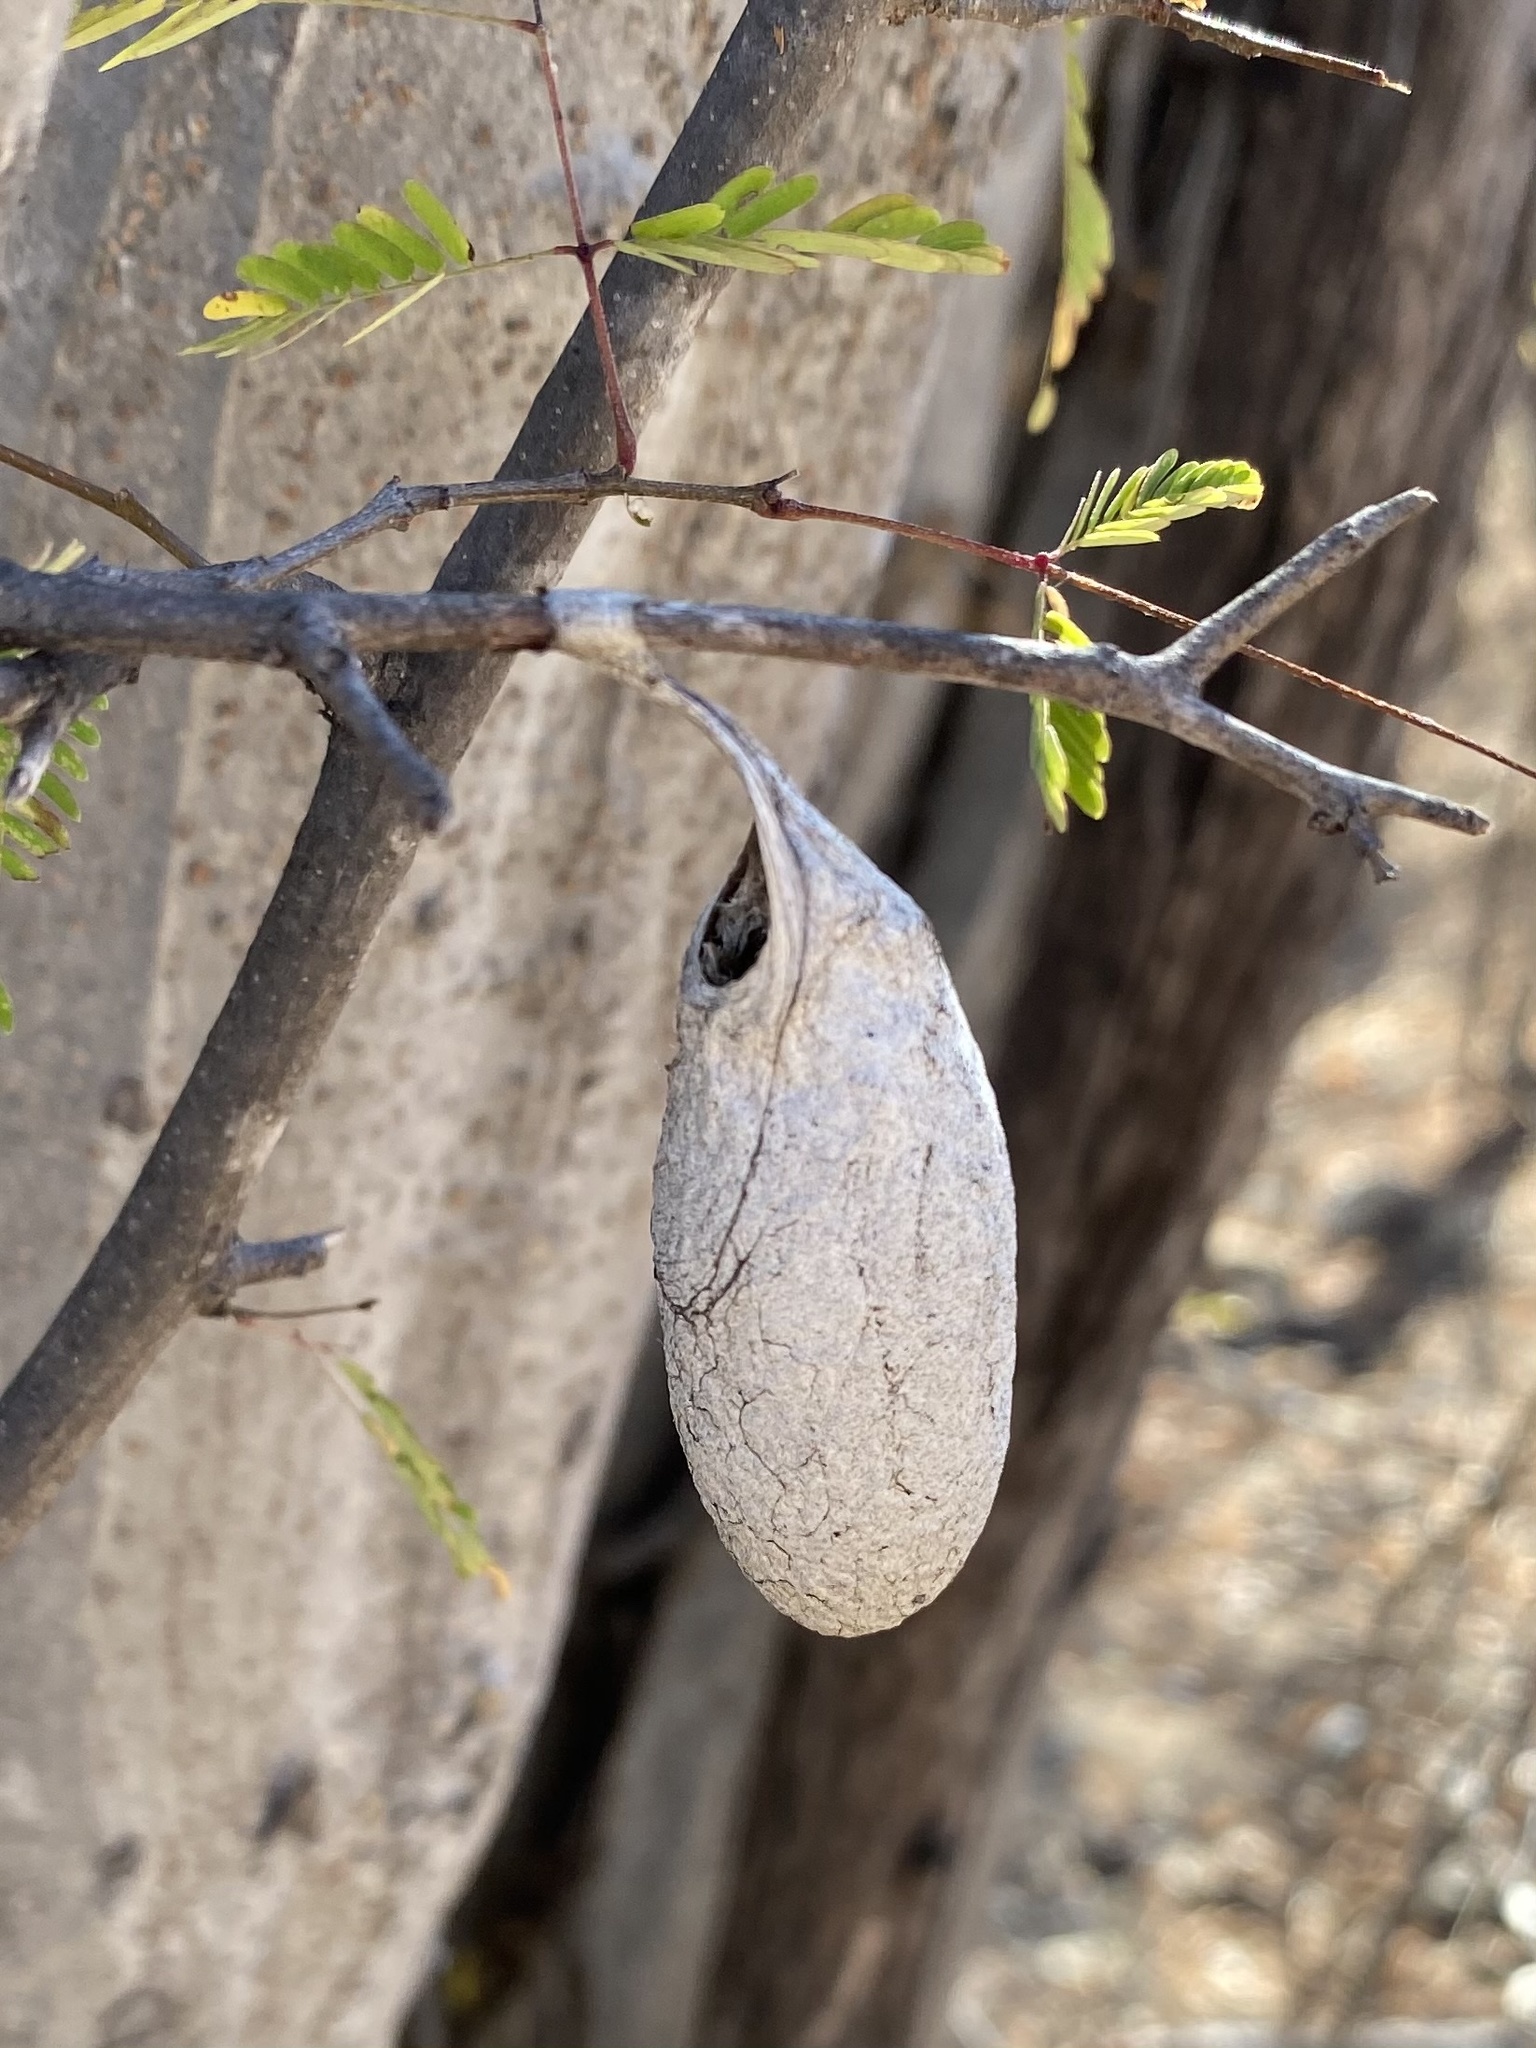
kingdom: Animalia
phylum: Arthropoda
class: Insecta
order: Lepidoptera
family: Saturniidae
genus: Eupackardia
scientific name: Eupackardia calleta
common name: Calleta silkmoth
